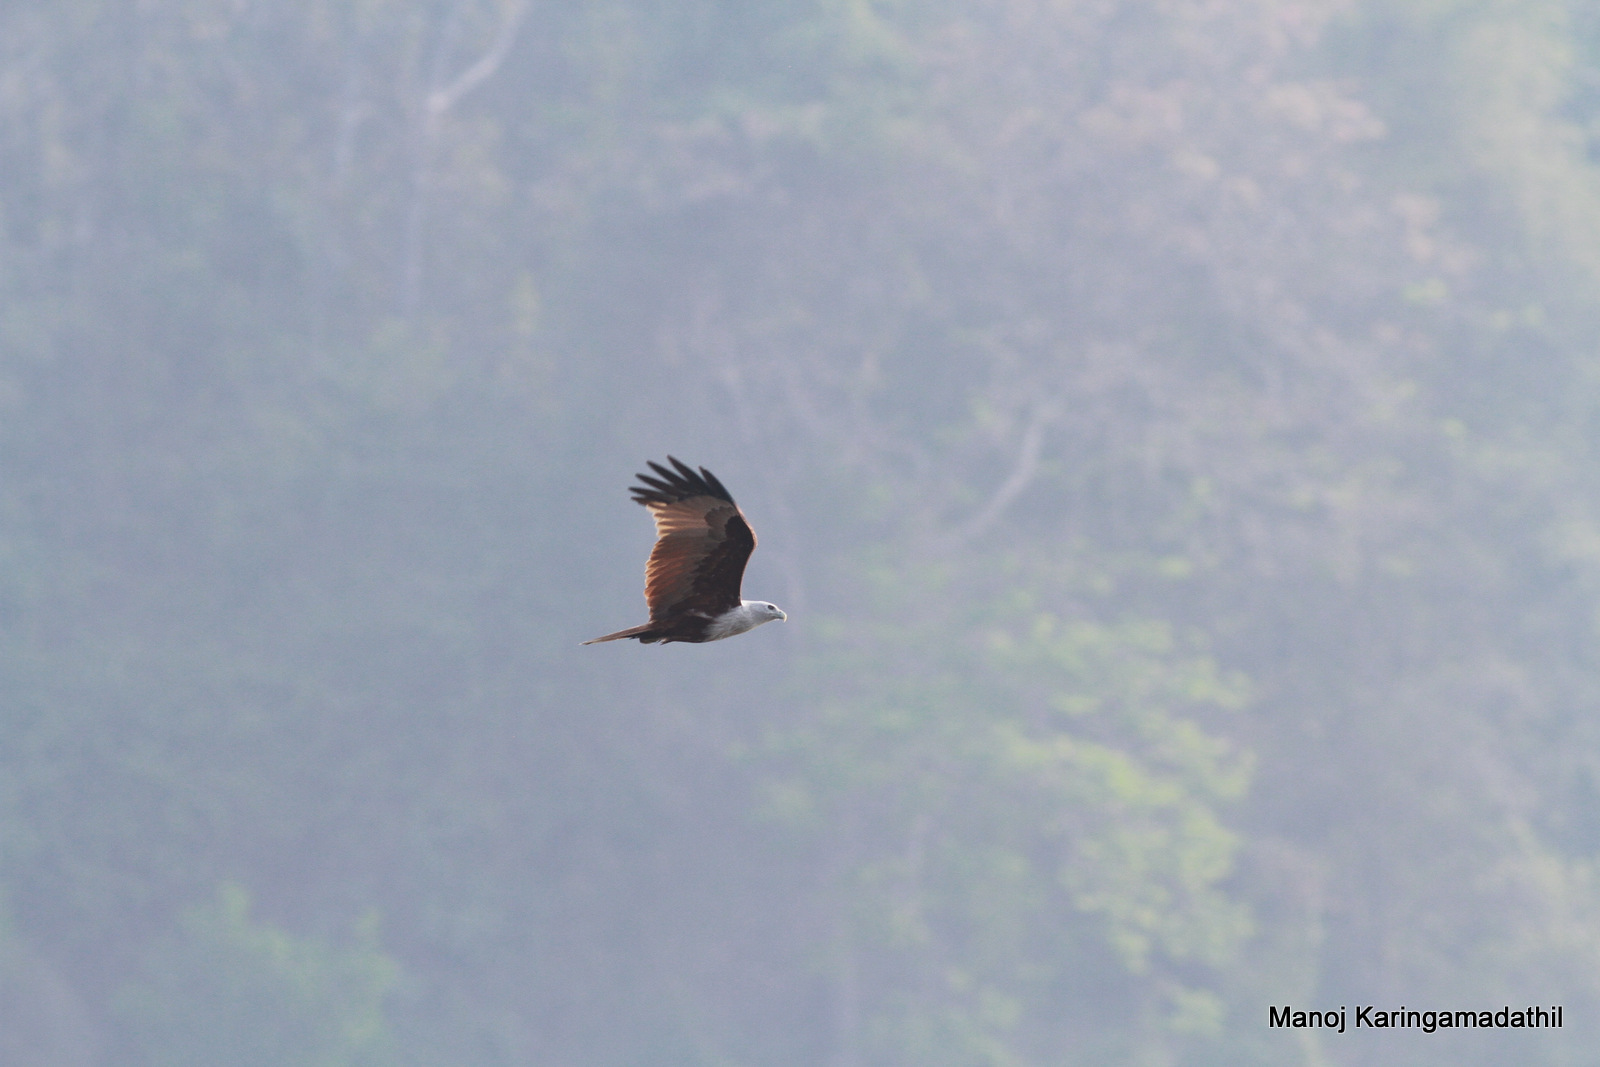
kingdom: Animalia
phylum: Chordata
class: Aves
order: Accipitriformes
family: Accipitridae
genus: Haliastur
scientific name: Haliastur indus
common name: Brahminy kite
